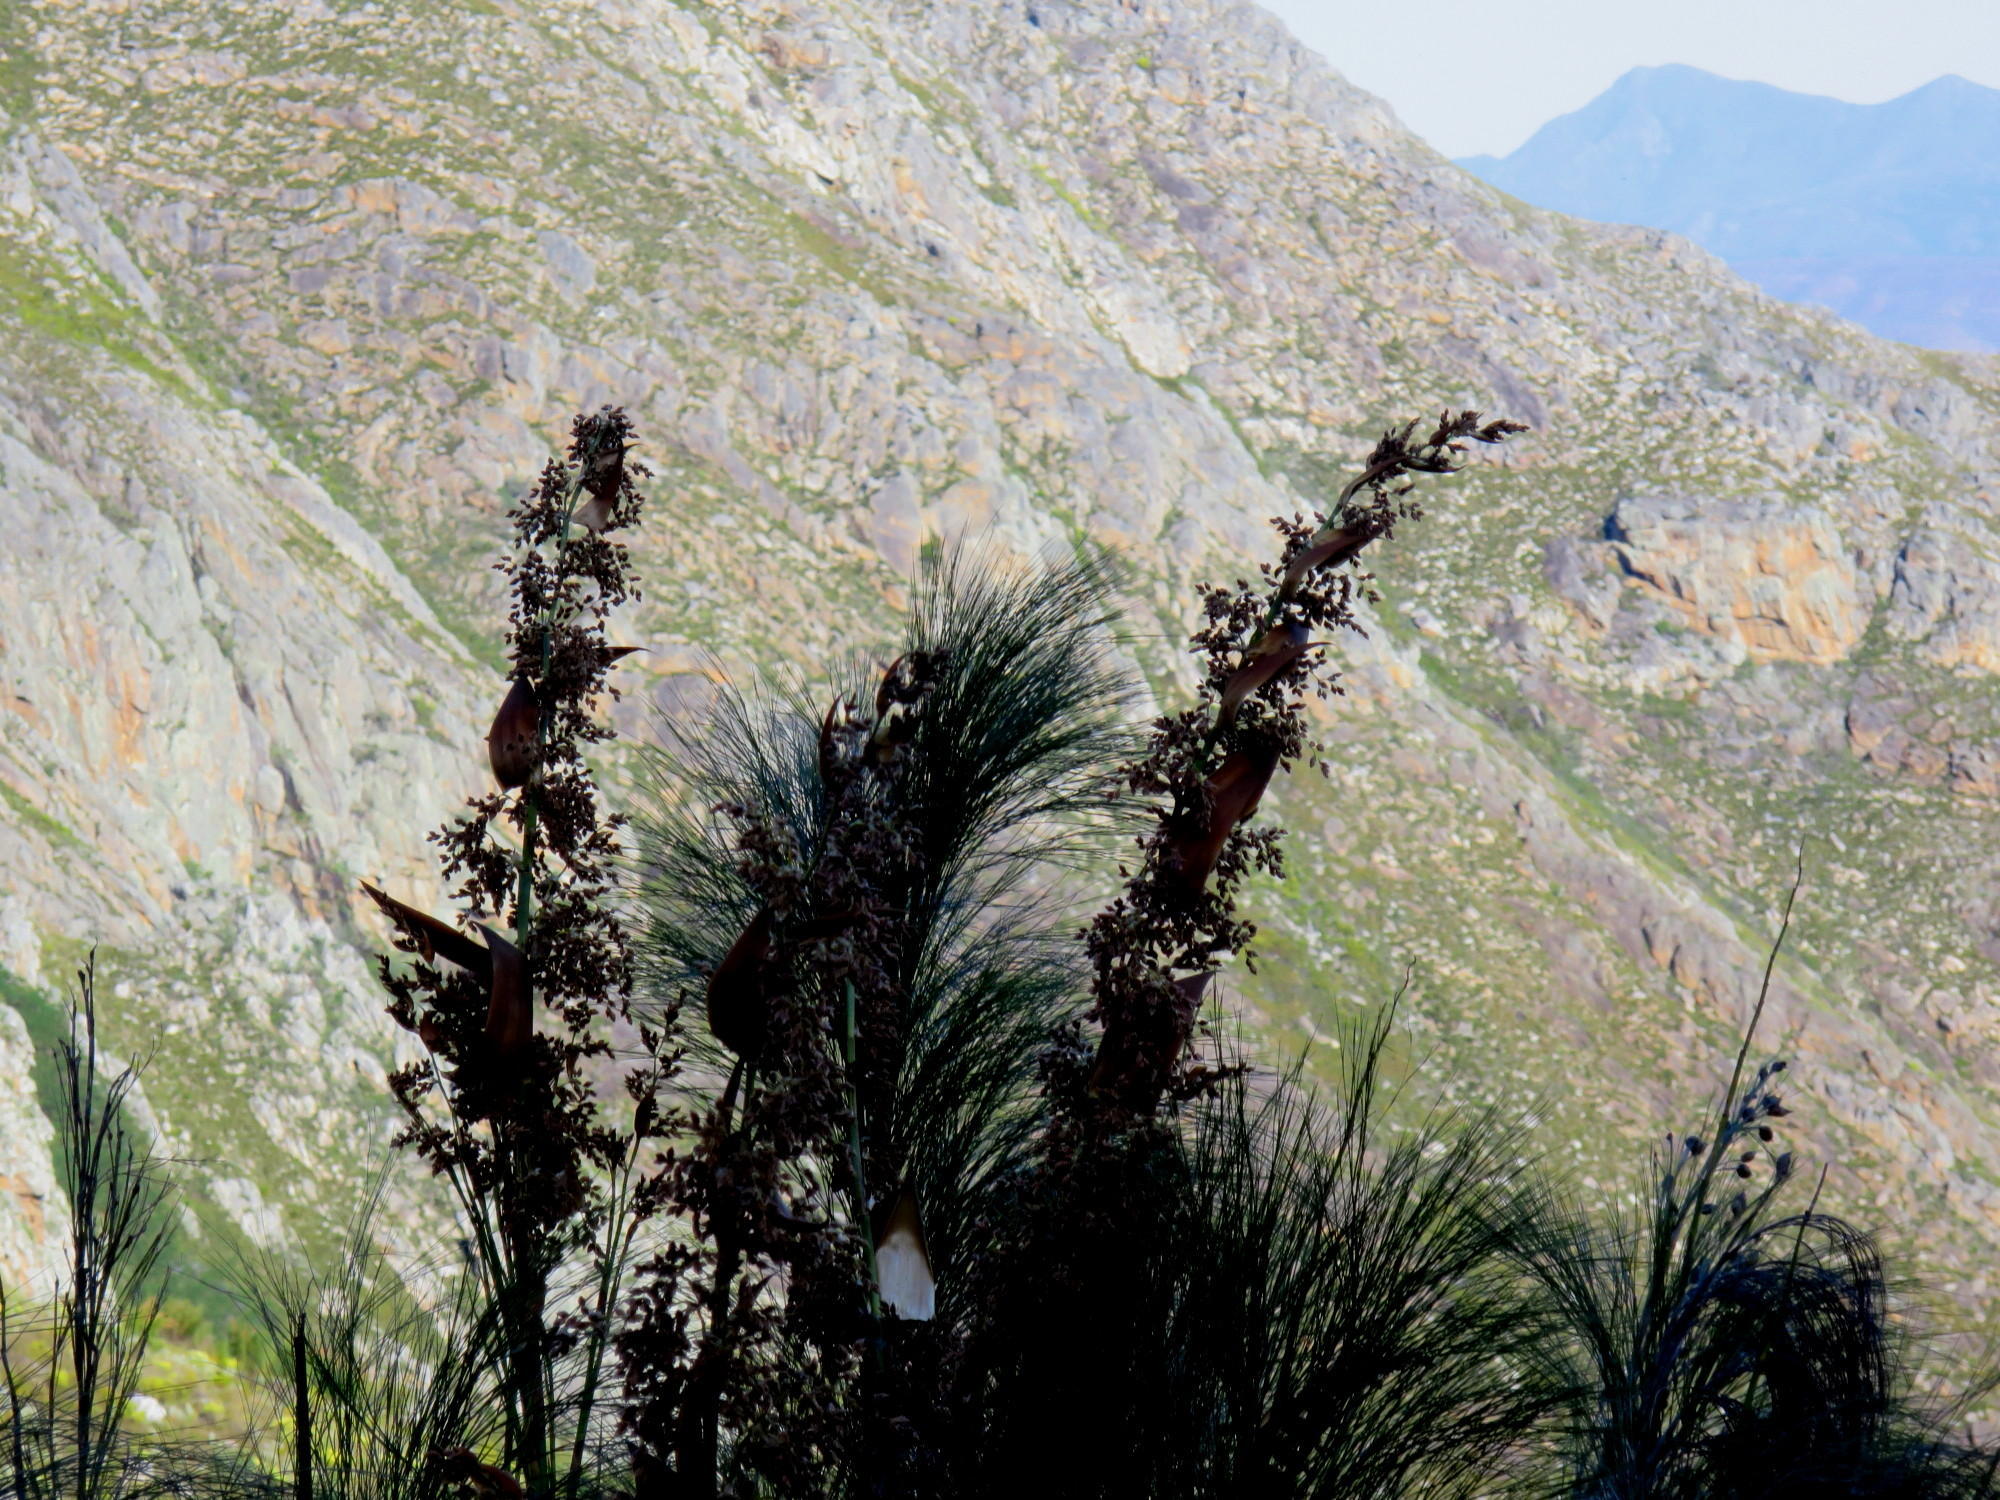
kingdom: Plantae
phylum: Tracheophyta
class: Liliopsida
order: Poales
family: Restionaceae
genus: Cannomois
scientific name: Cannomois grandis
